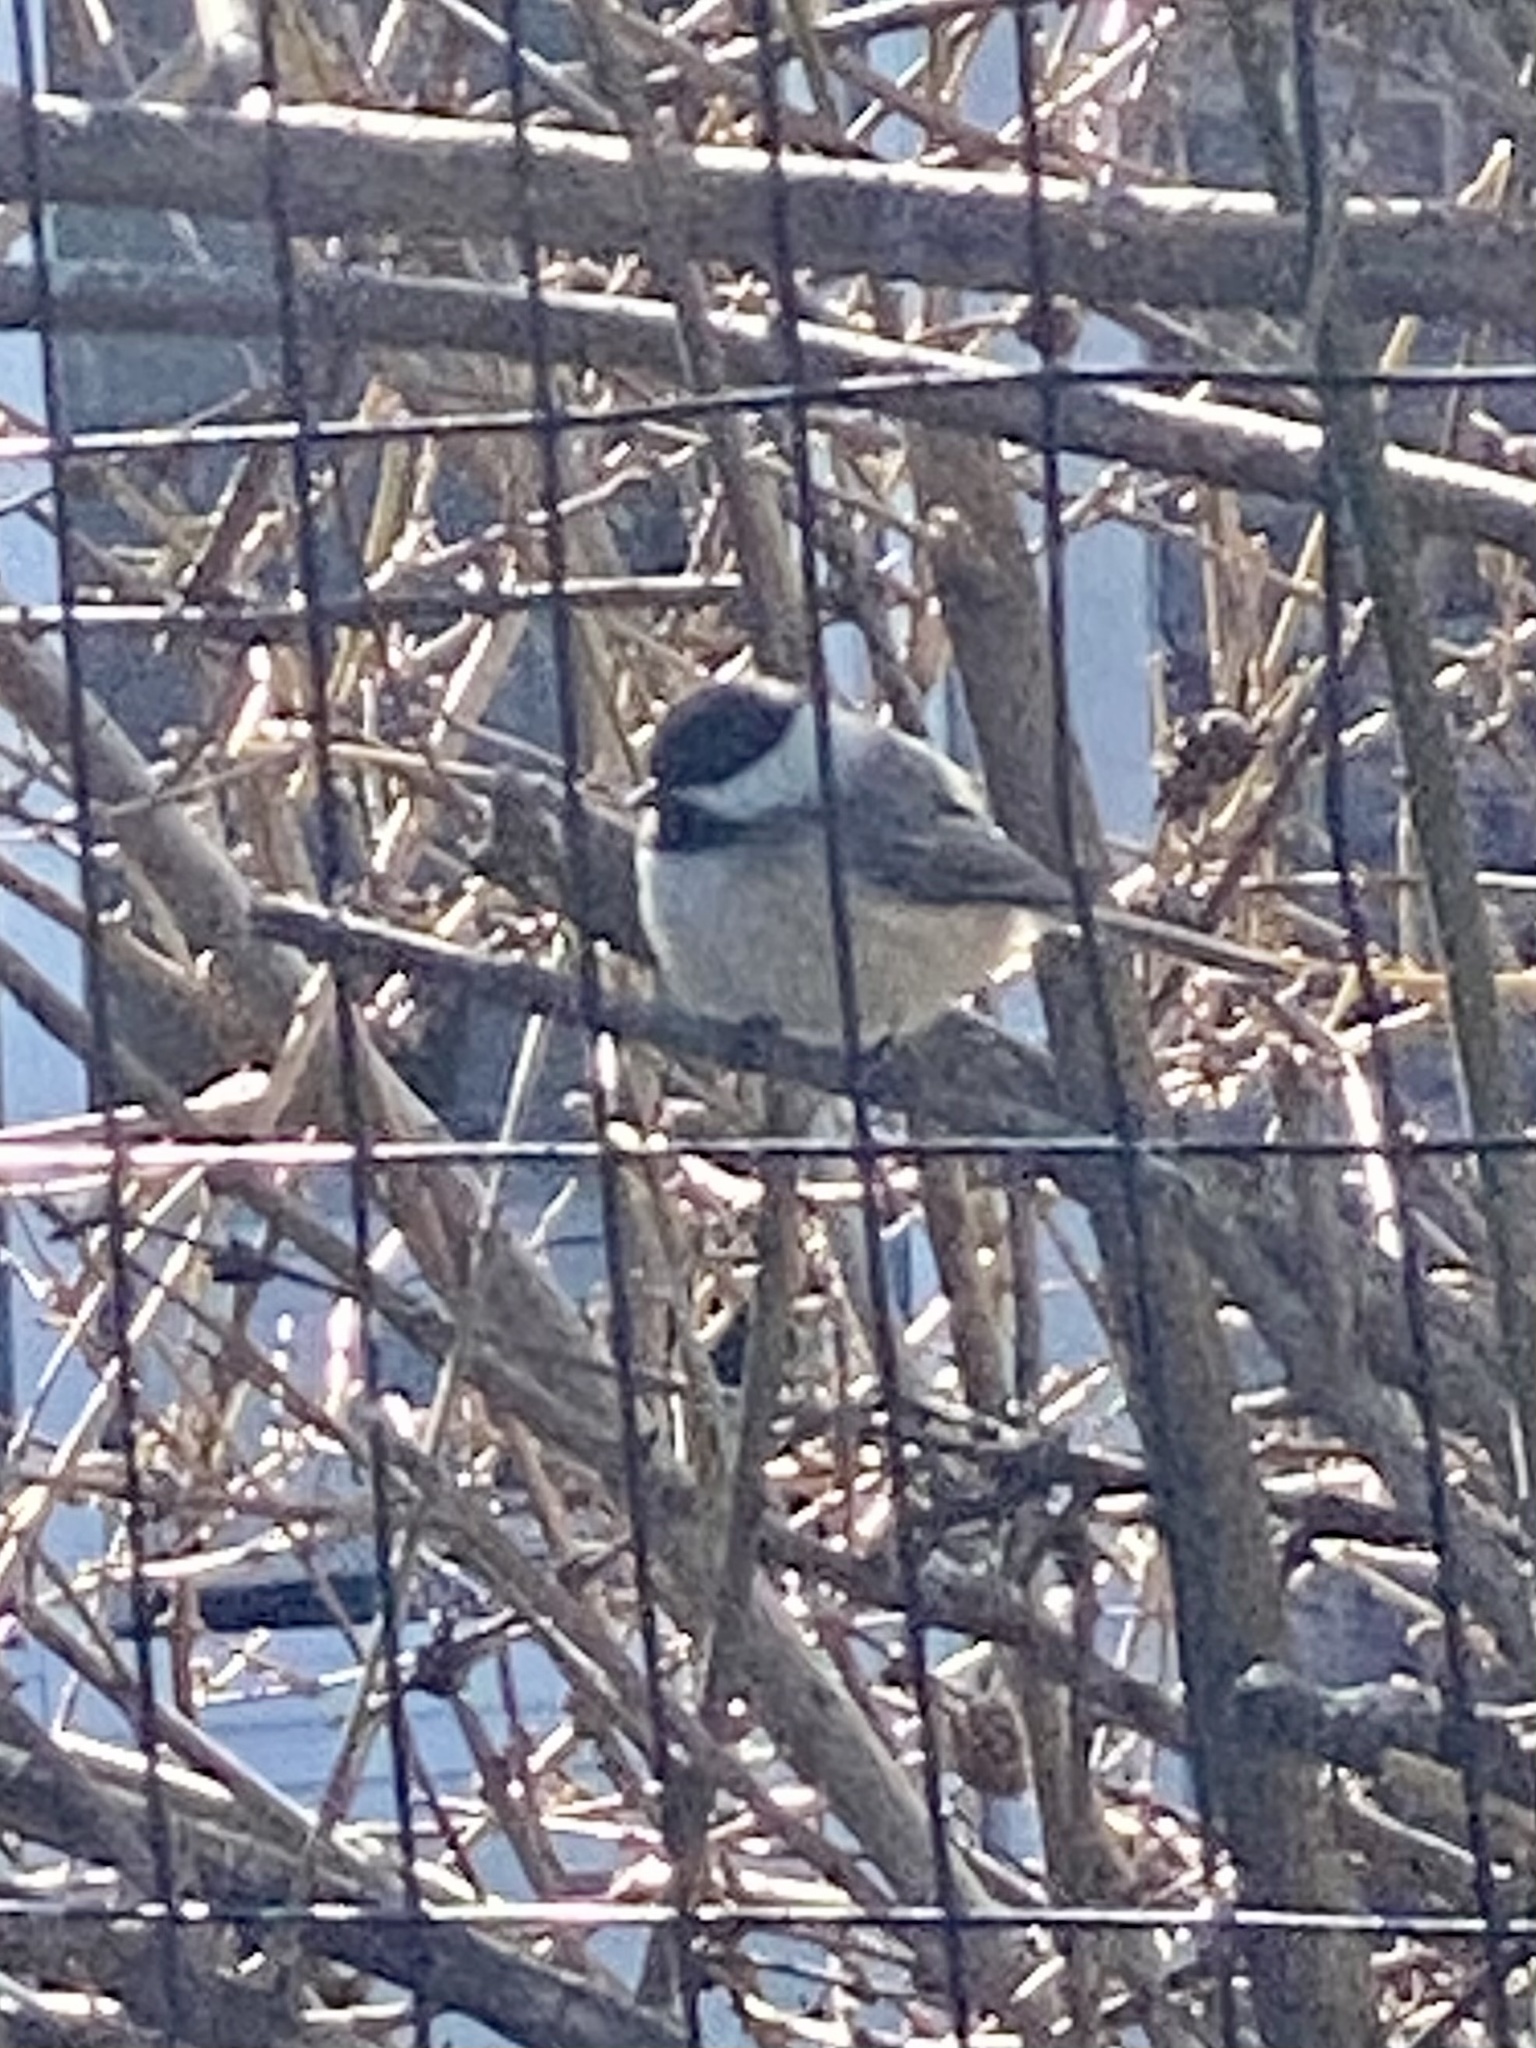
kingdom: Animalia
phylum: Chordata
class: Aves
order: Passeriformes
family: Paridae
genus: Poecile
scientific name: Poecile atricapillus
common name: Black-capped chickadee
